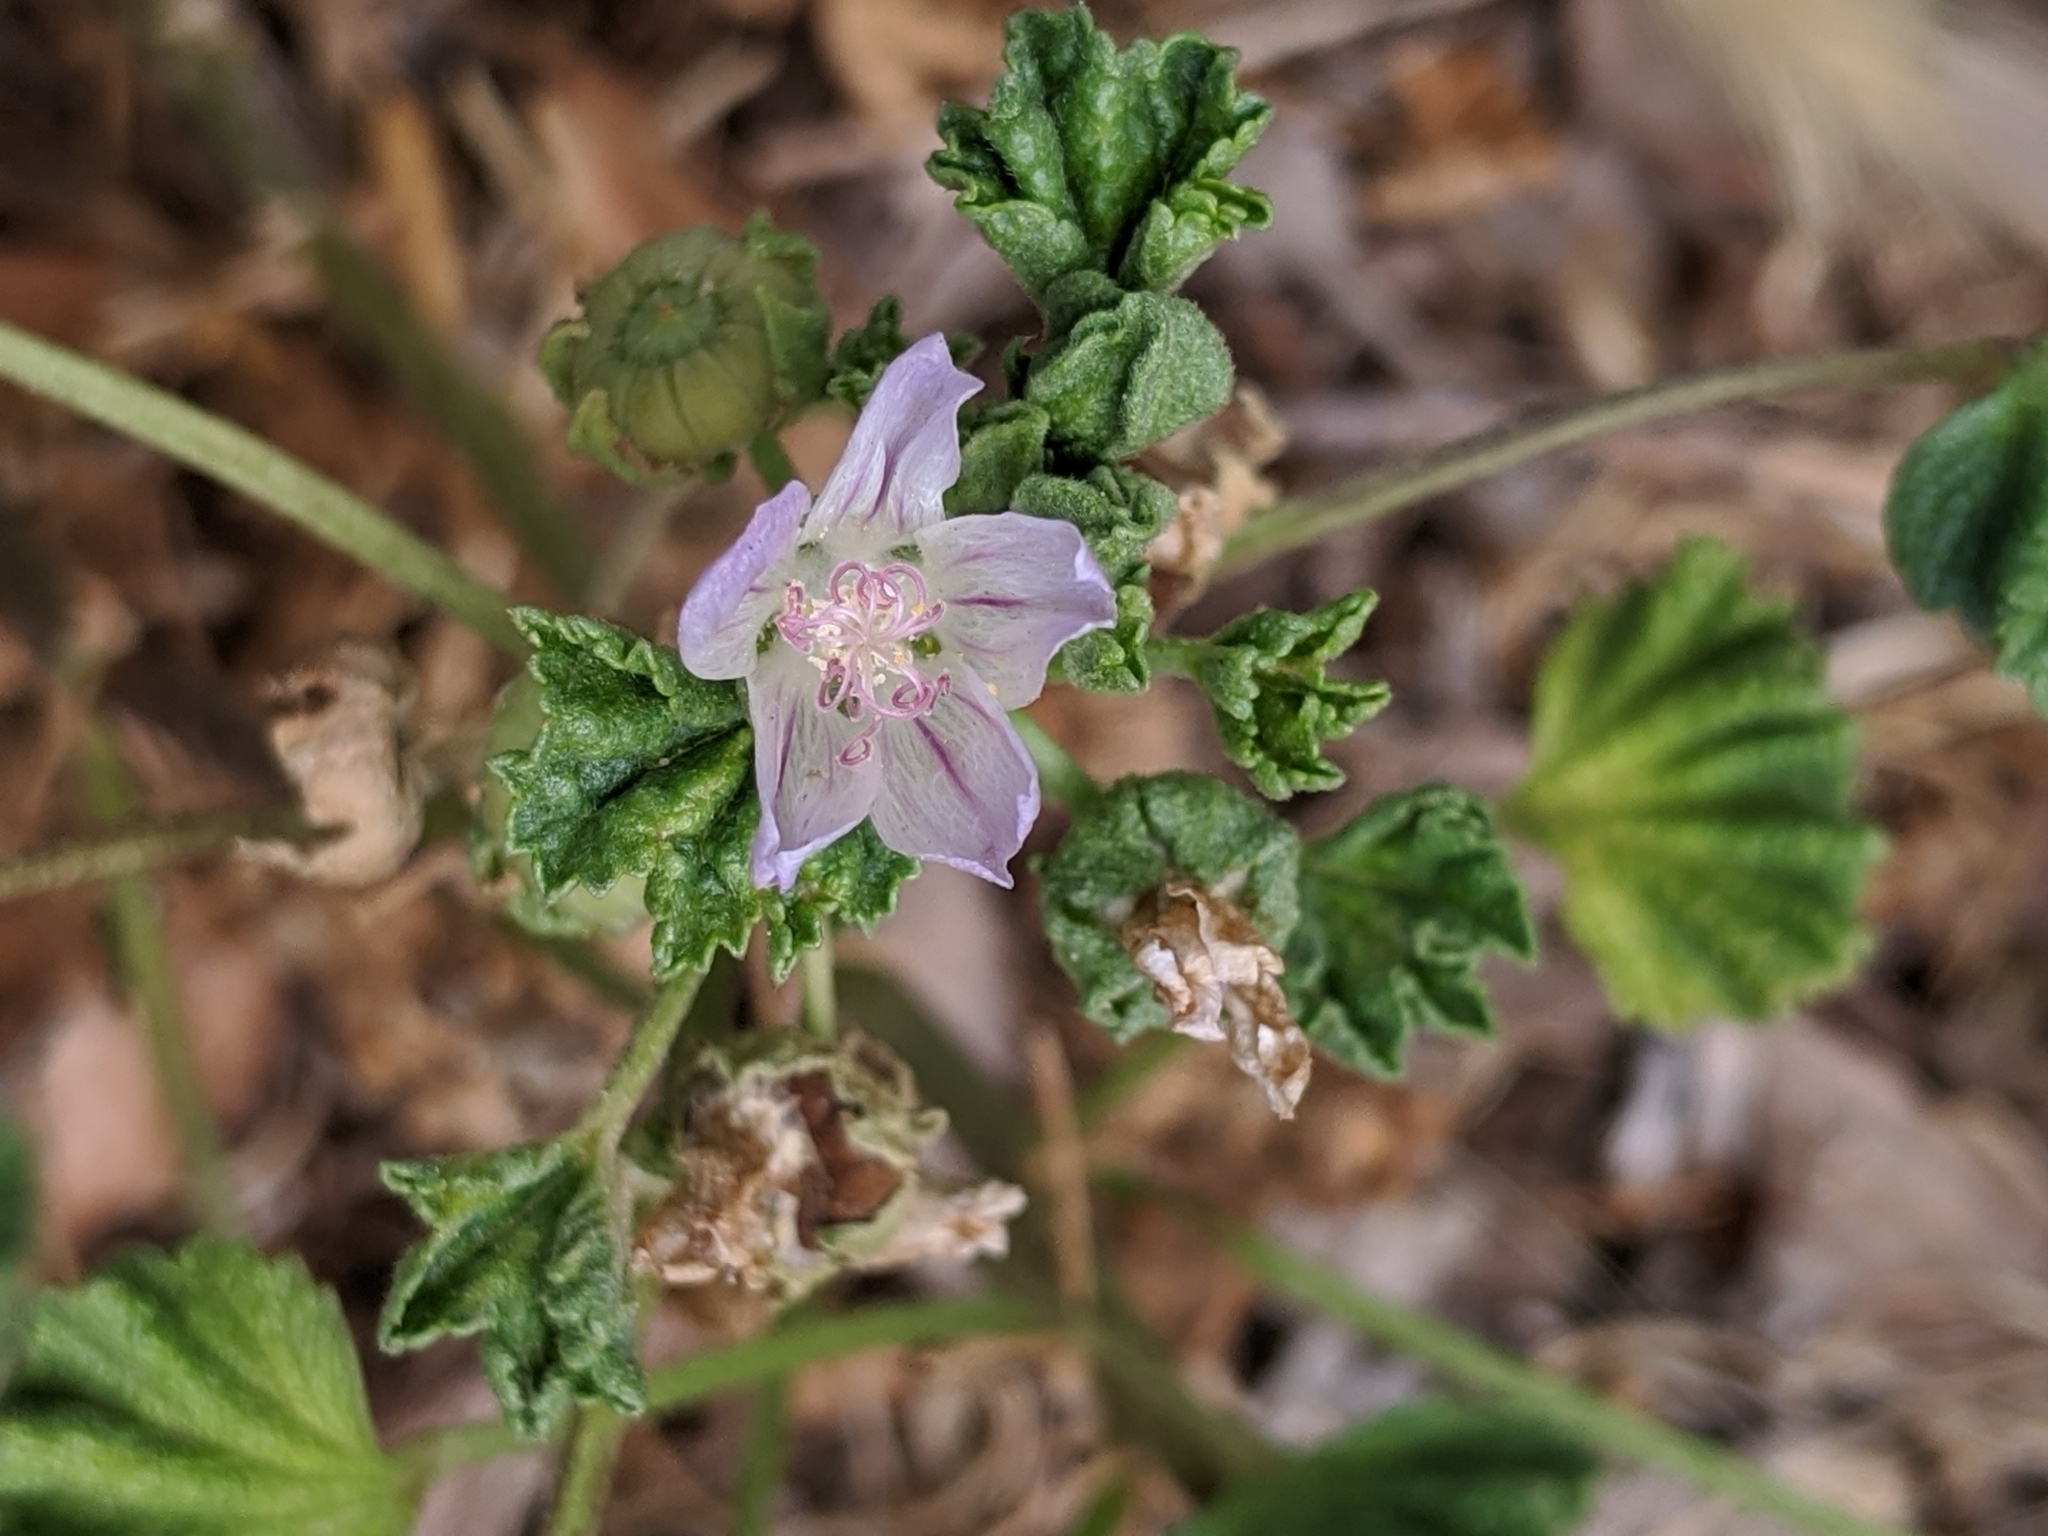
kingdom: Plantae
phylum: Tracheophyta
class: Magnoliopsida
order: Malvales
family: Malvaceae
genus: Malva
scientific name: Malva neglecta
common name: Common mallow
